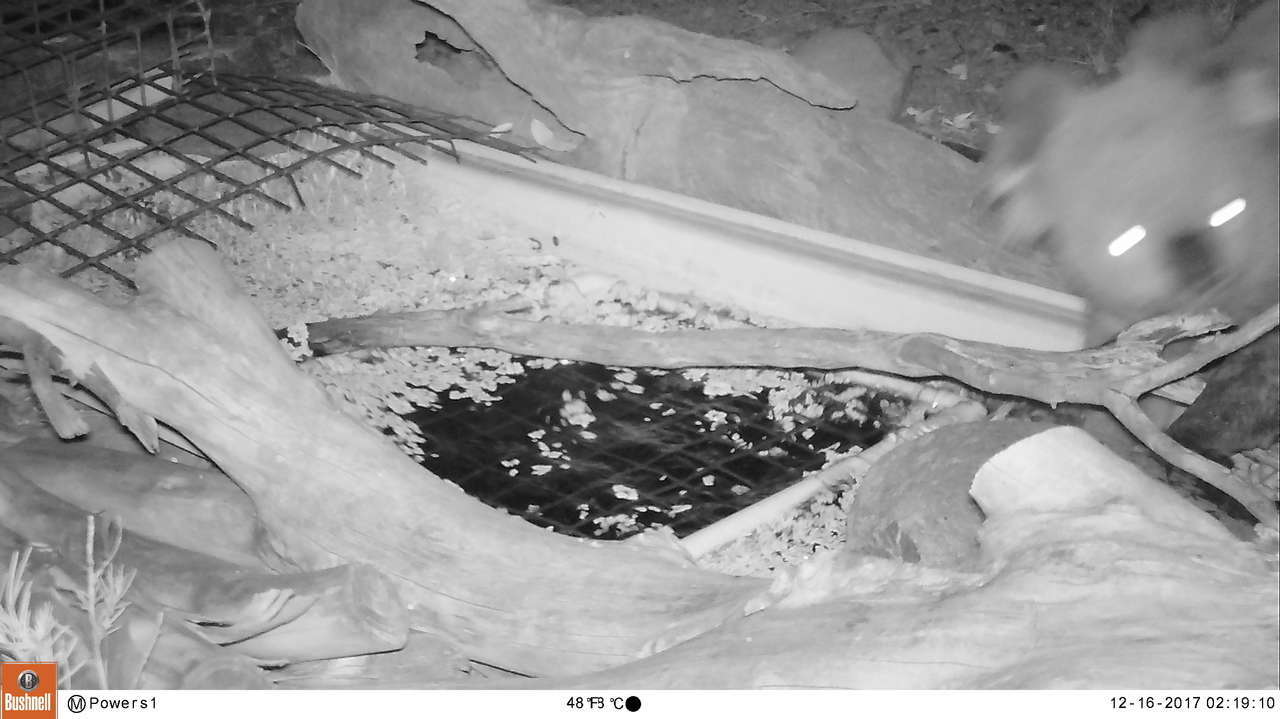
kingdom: Animalia
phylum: Chordata
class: Mammalia
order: Diprotodontia
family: Phascolarctidae
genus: Phascolarctos
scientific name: Phascolarctos cinereus
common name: Koala
